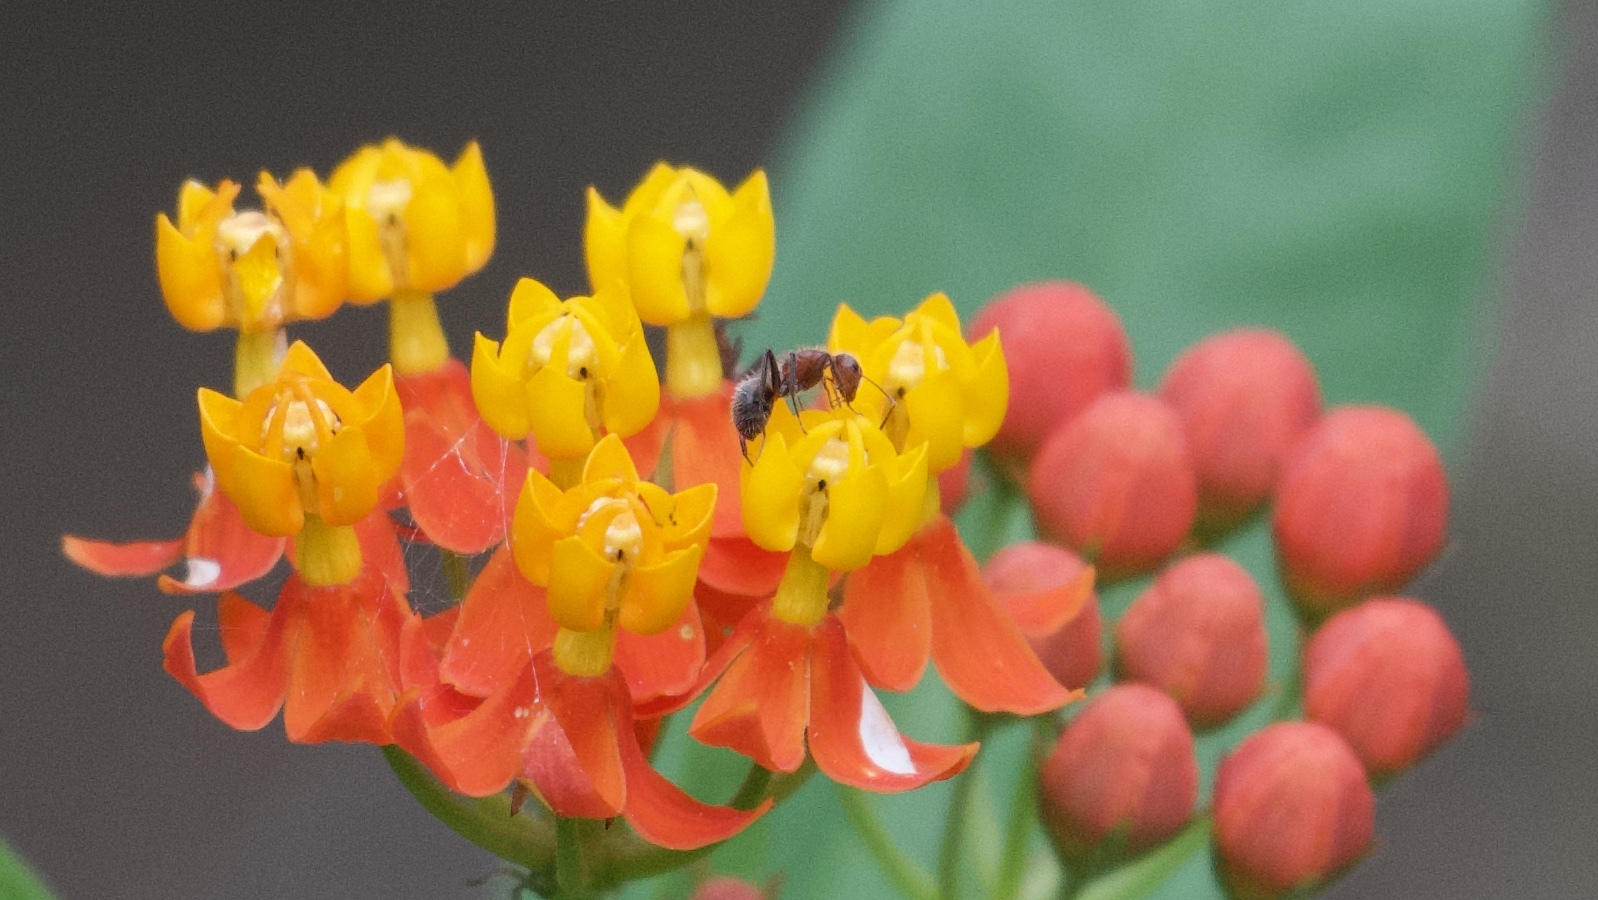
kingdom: Plantae
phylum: Tracheophyta
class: Magnoliopsida
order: Gentianales
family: Apocynaceae
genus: Asclepias
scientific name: Asclepias curassavica
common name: Bloodflower
